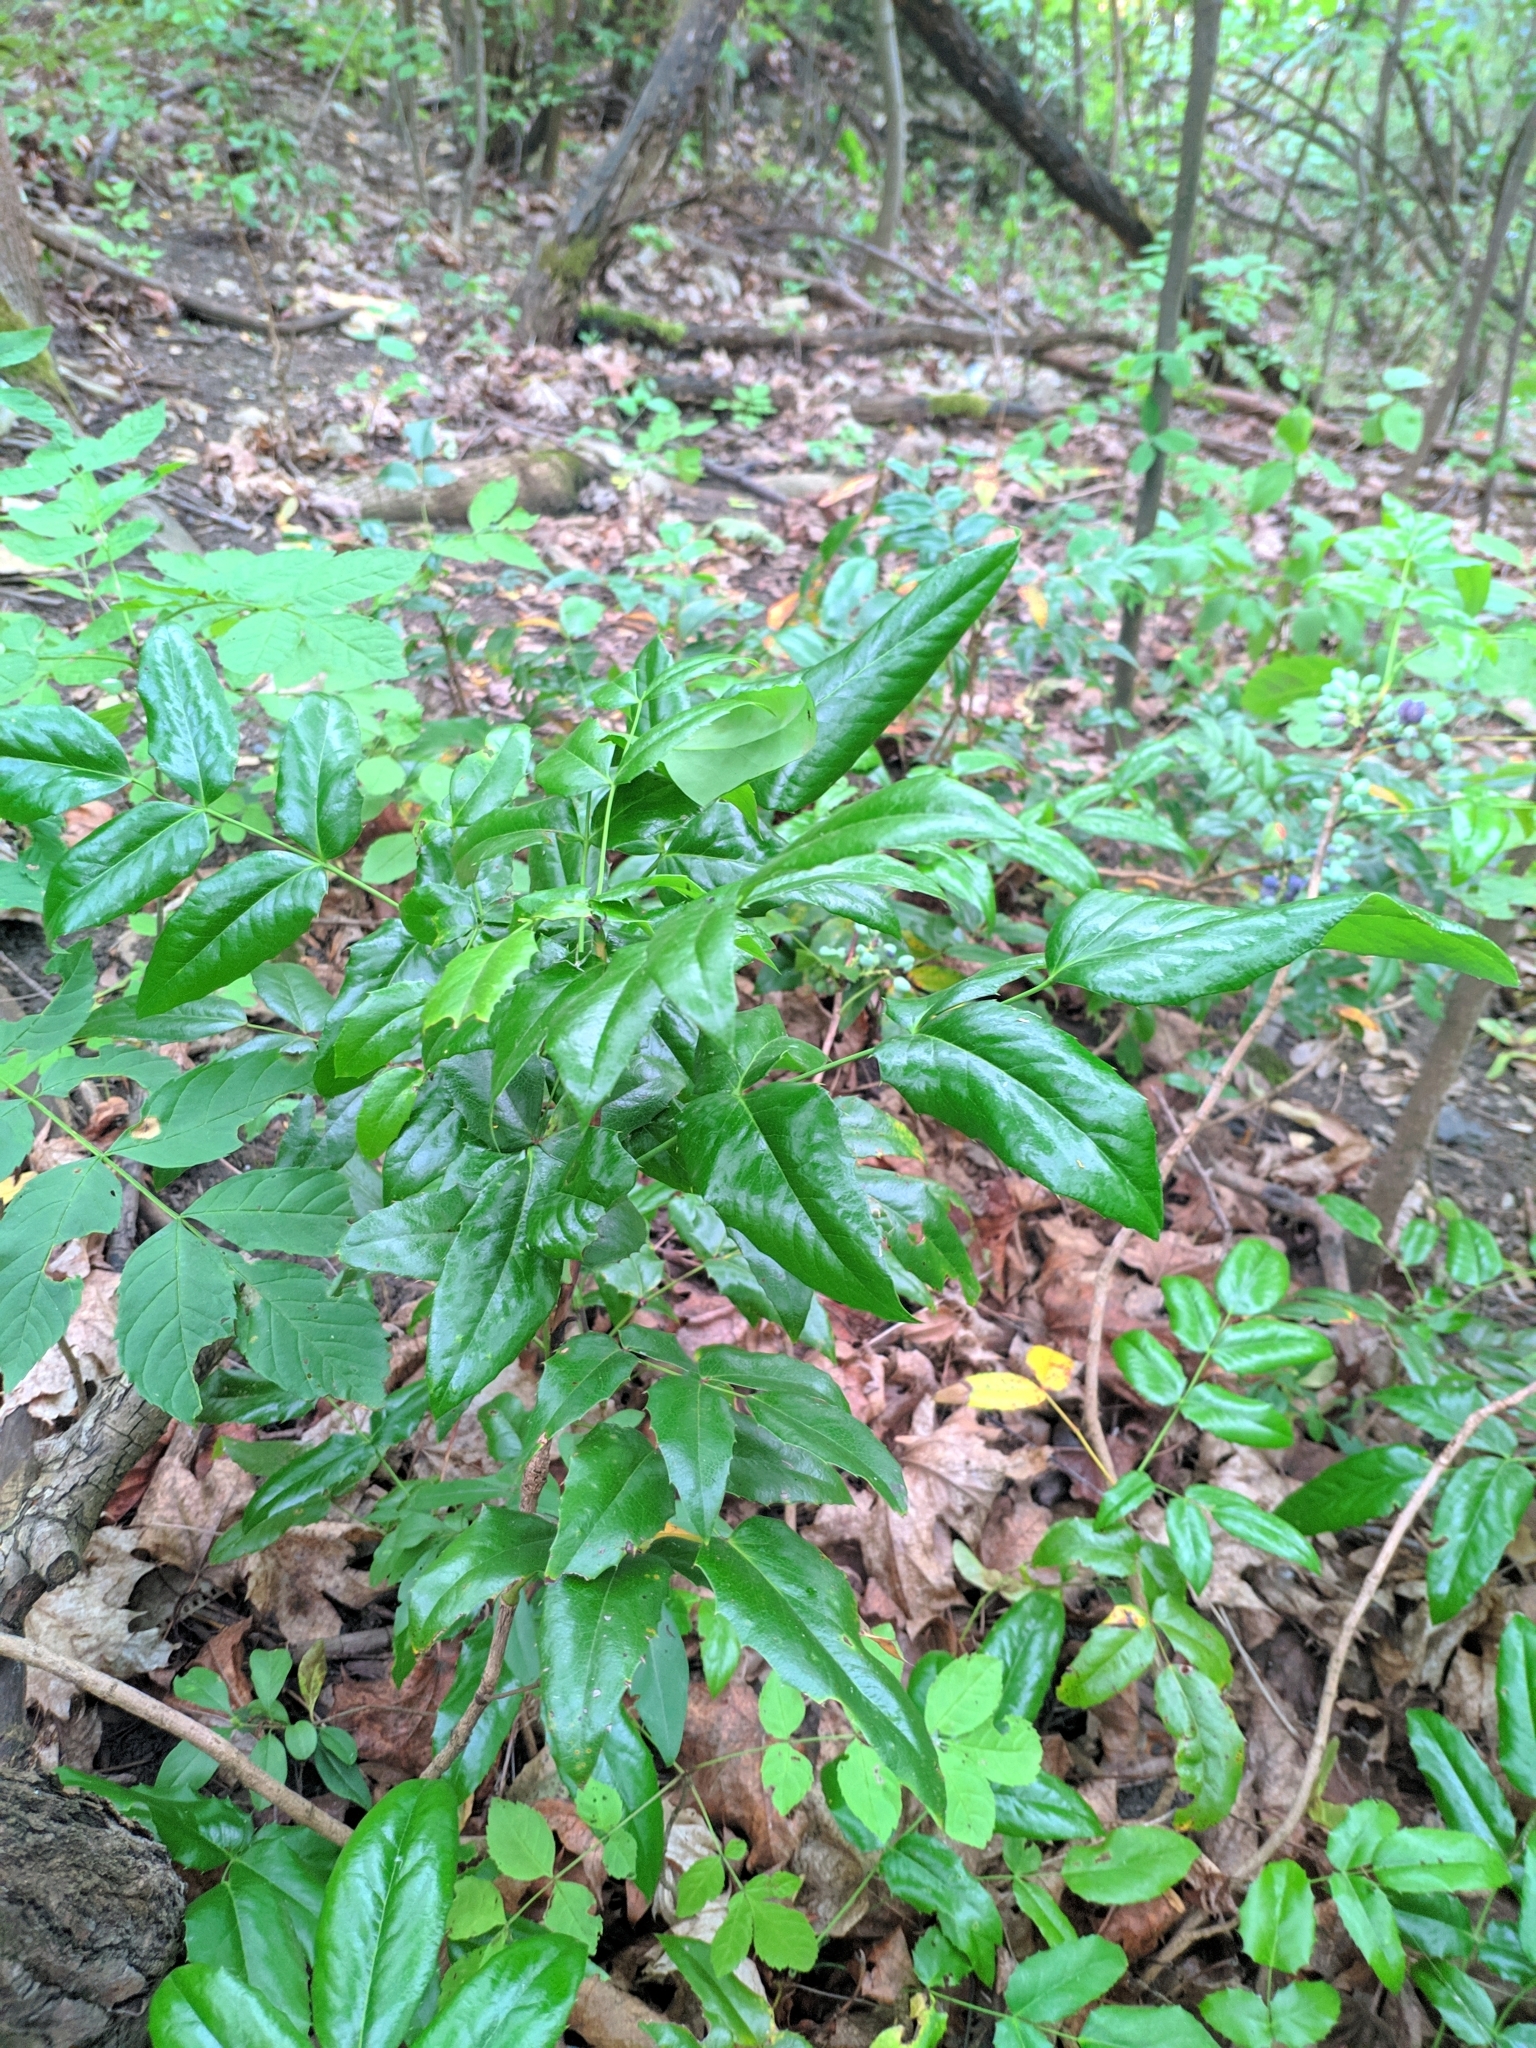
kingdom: Plantae
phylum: Tracheophyta
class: Magnoliopsida
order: Ranunculales
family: Berberidaceae
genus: Mahonia
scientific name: Mahonia aquifolium
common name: Oregon-grape
